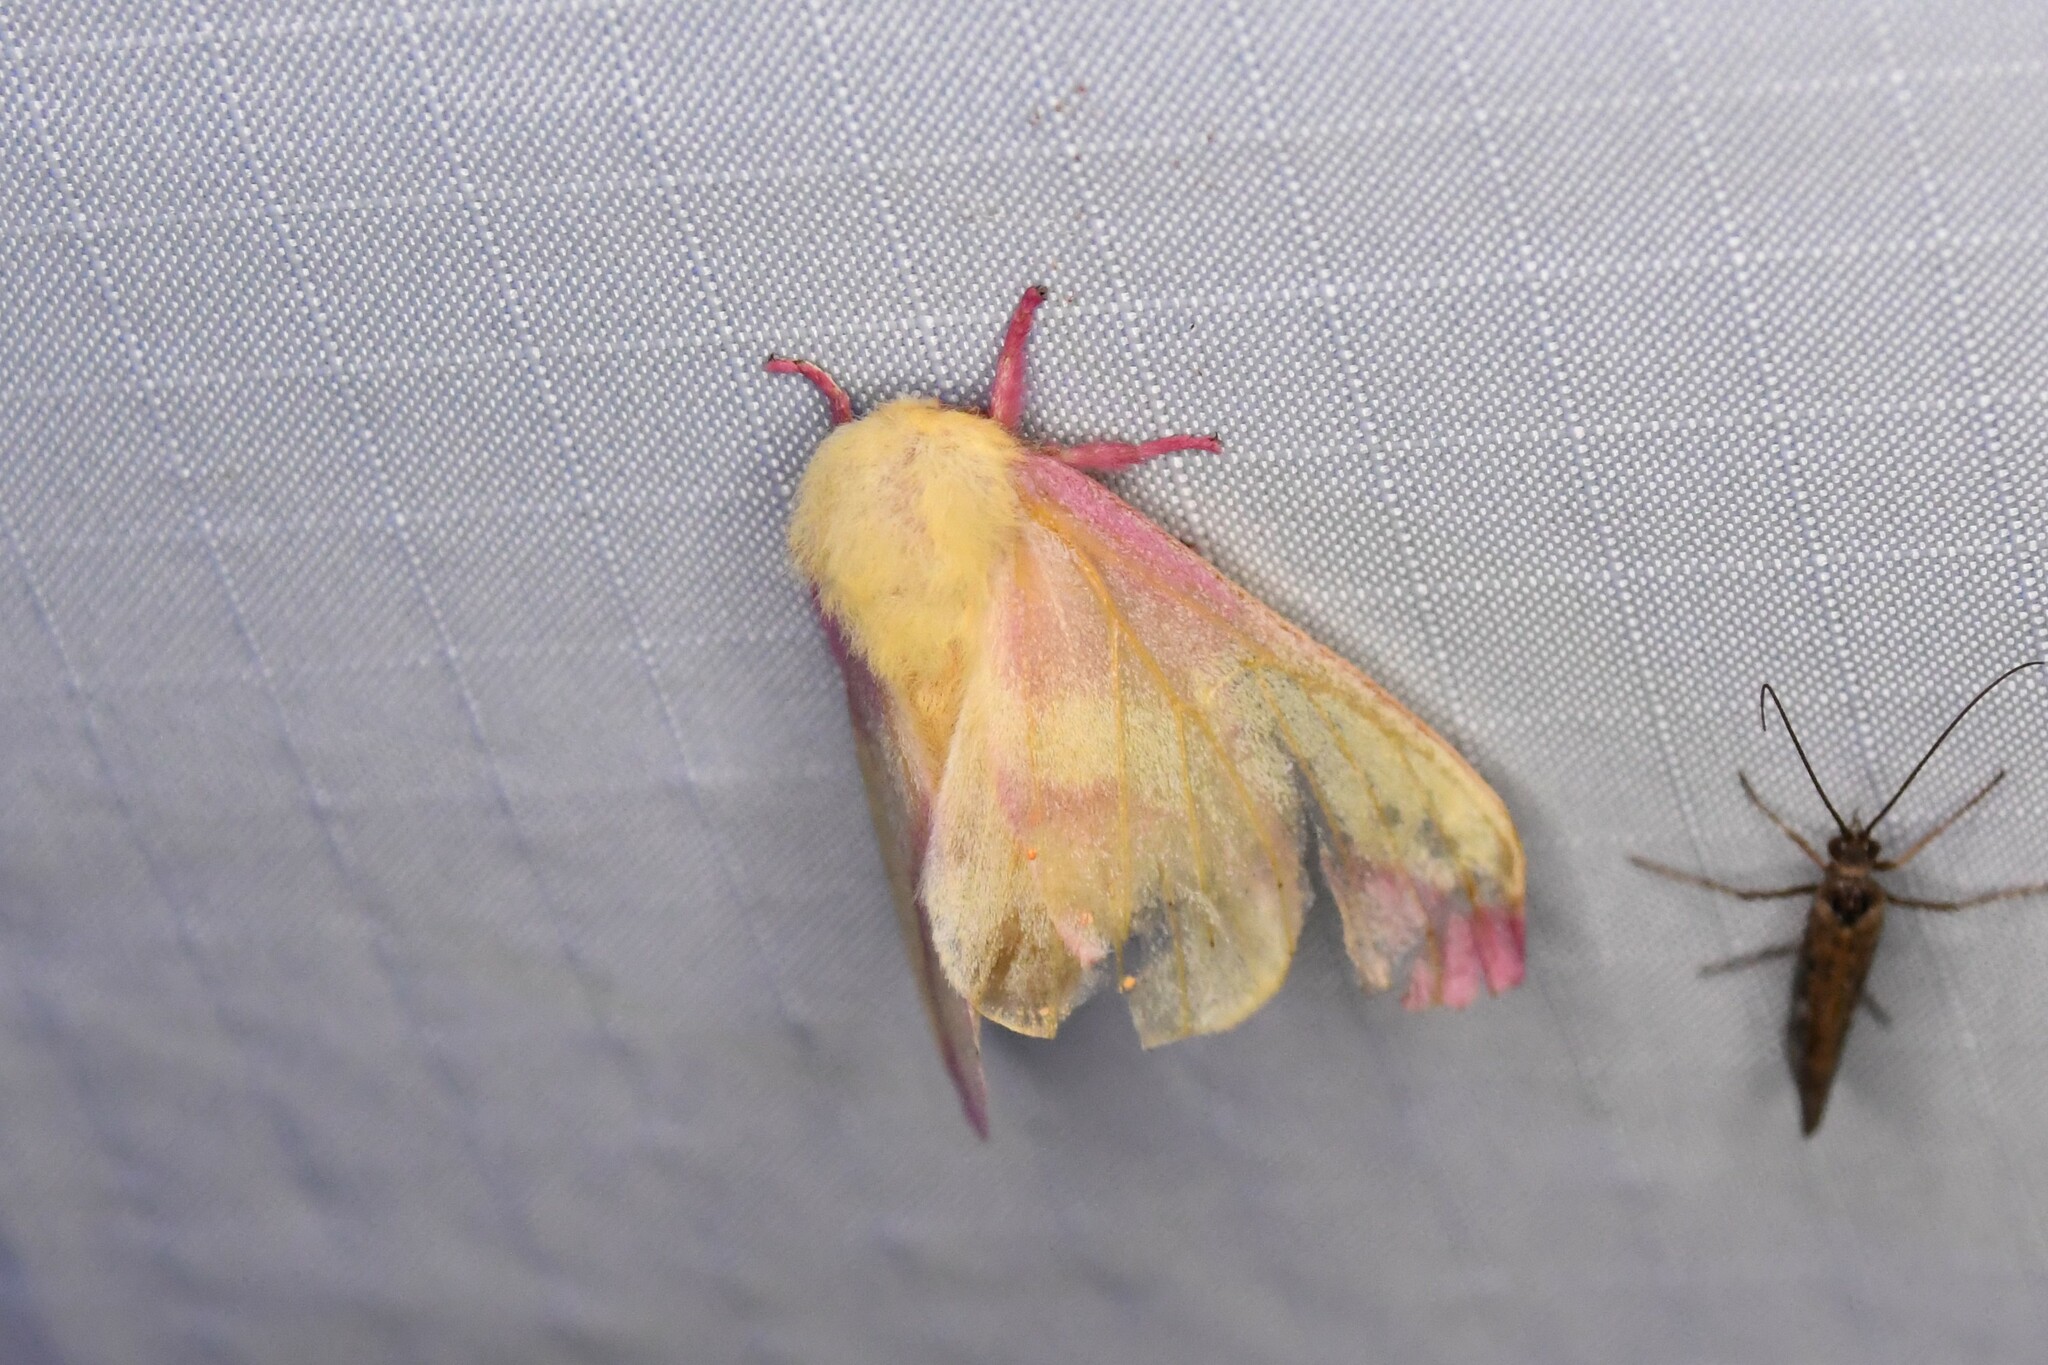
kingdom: Animalia
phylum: Arthropoda
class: Insecta
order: Lepidoptera
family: Saturniidae
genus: Dryocampa
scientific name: Dryocampa rubicunda
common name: Rosy maple moth
